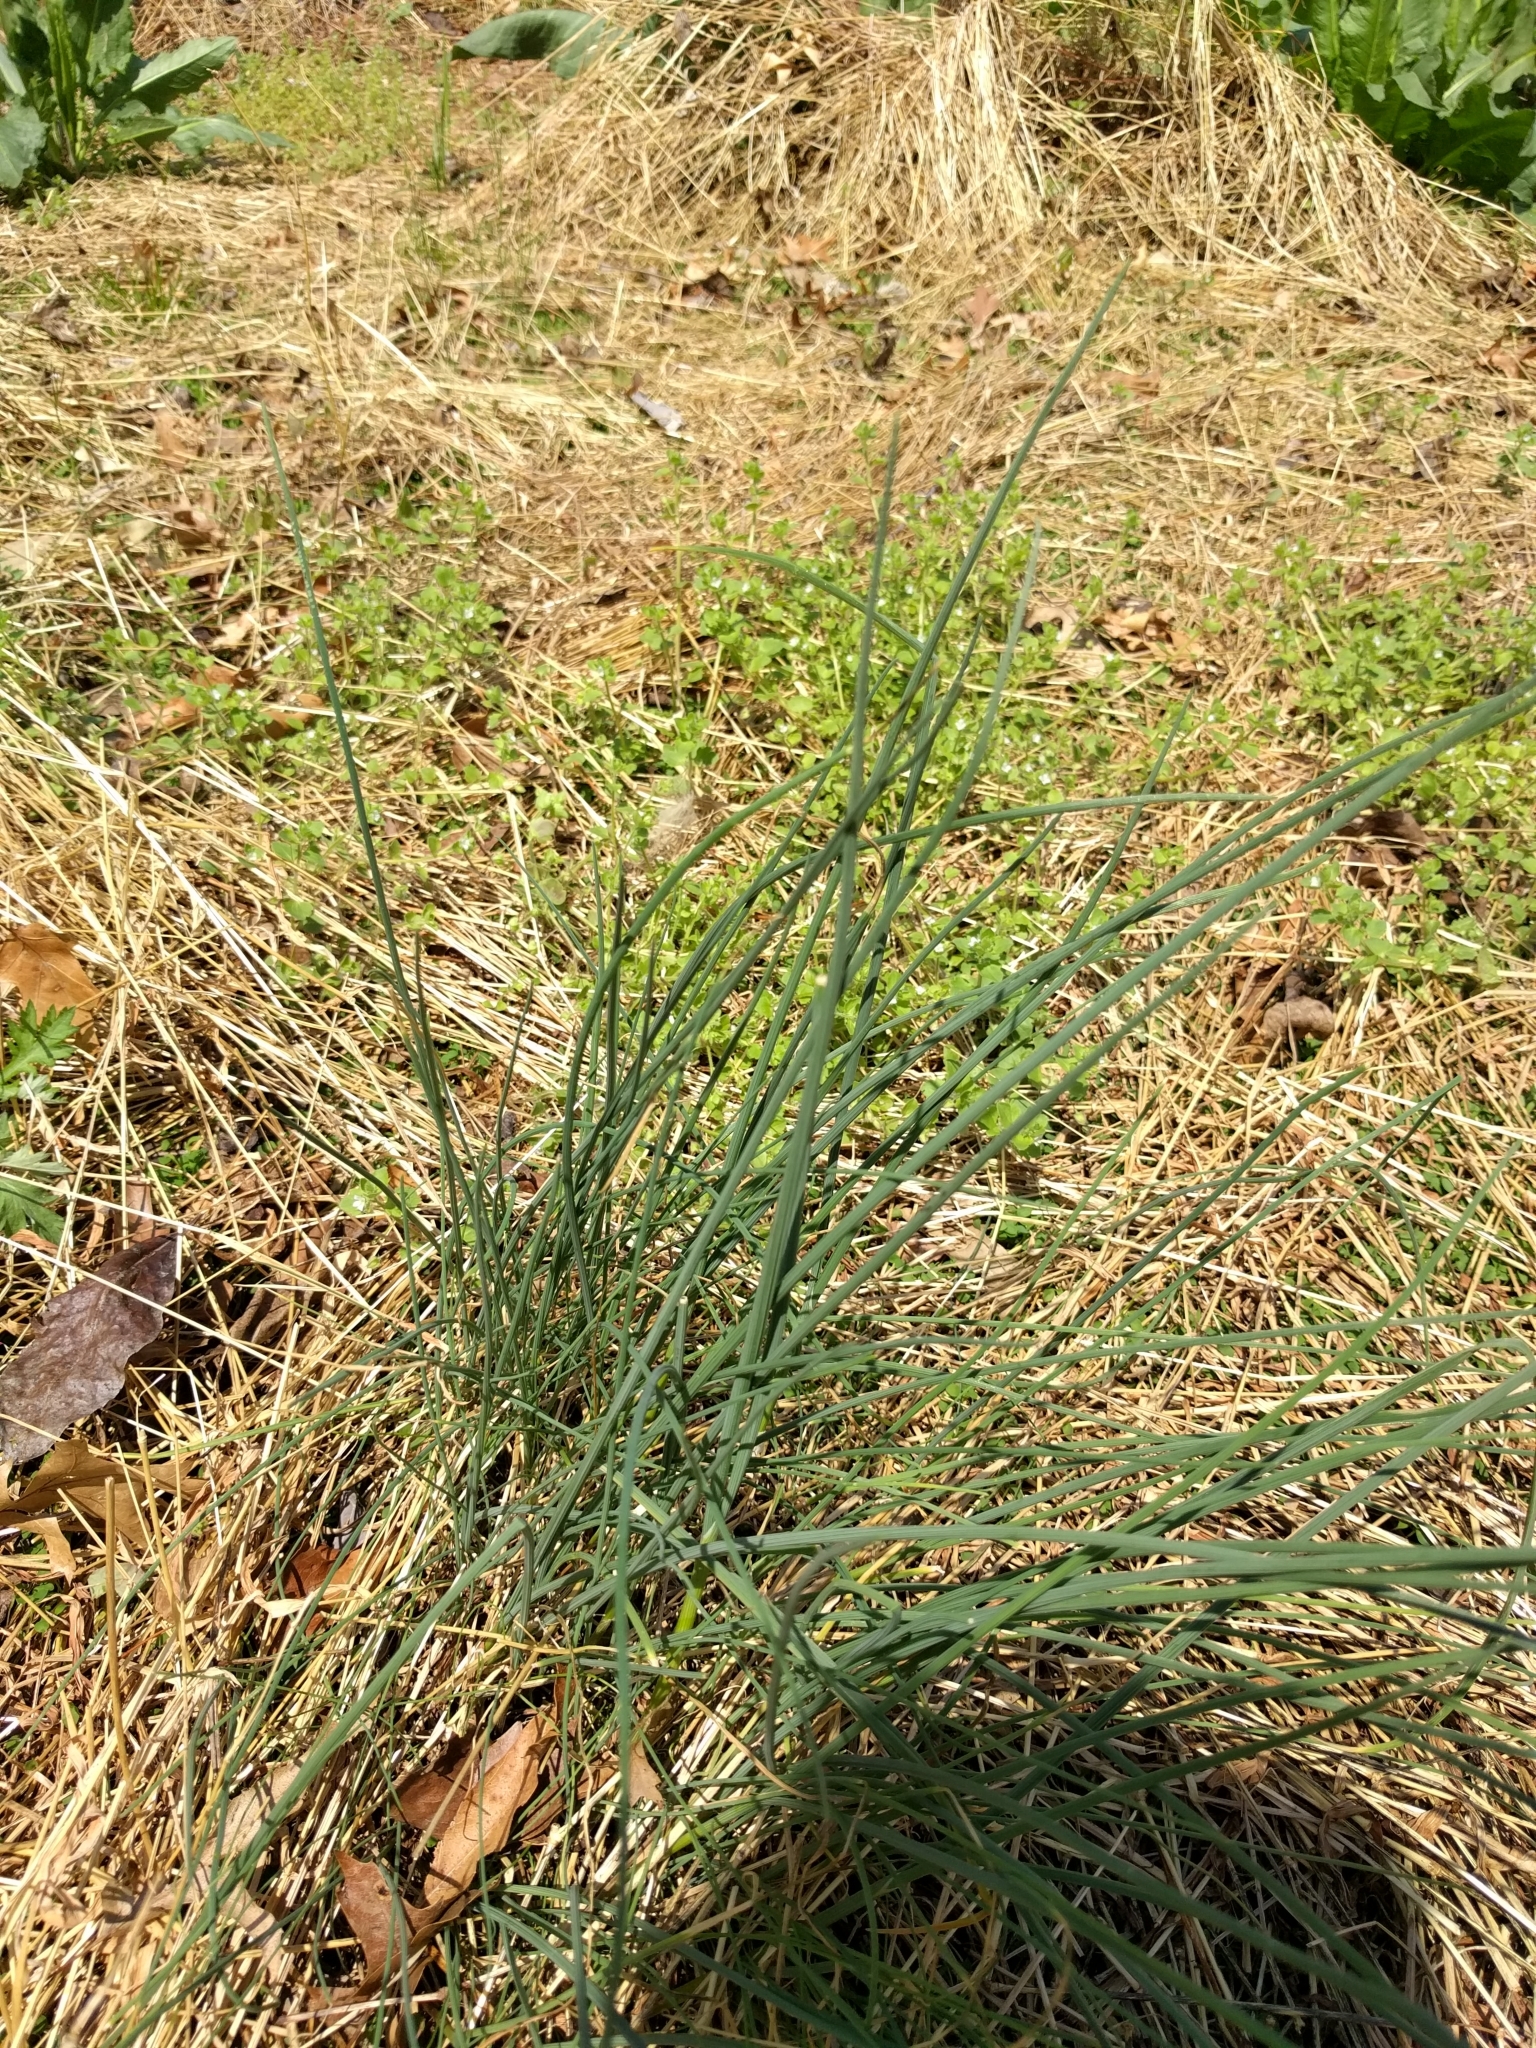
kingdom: Plantae
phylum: Tracheophyta
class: Liliopsida
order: Asparagales
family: Amaryllidaceae
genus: Allium
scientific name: Allium vineale
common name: Crow garlic
